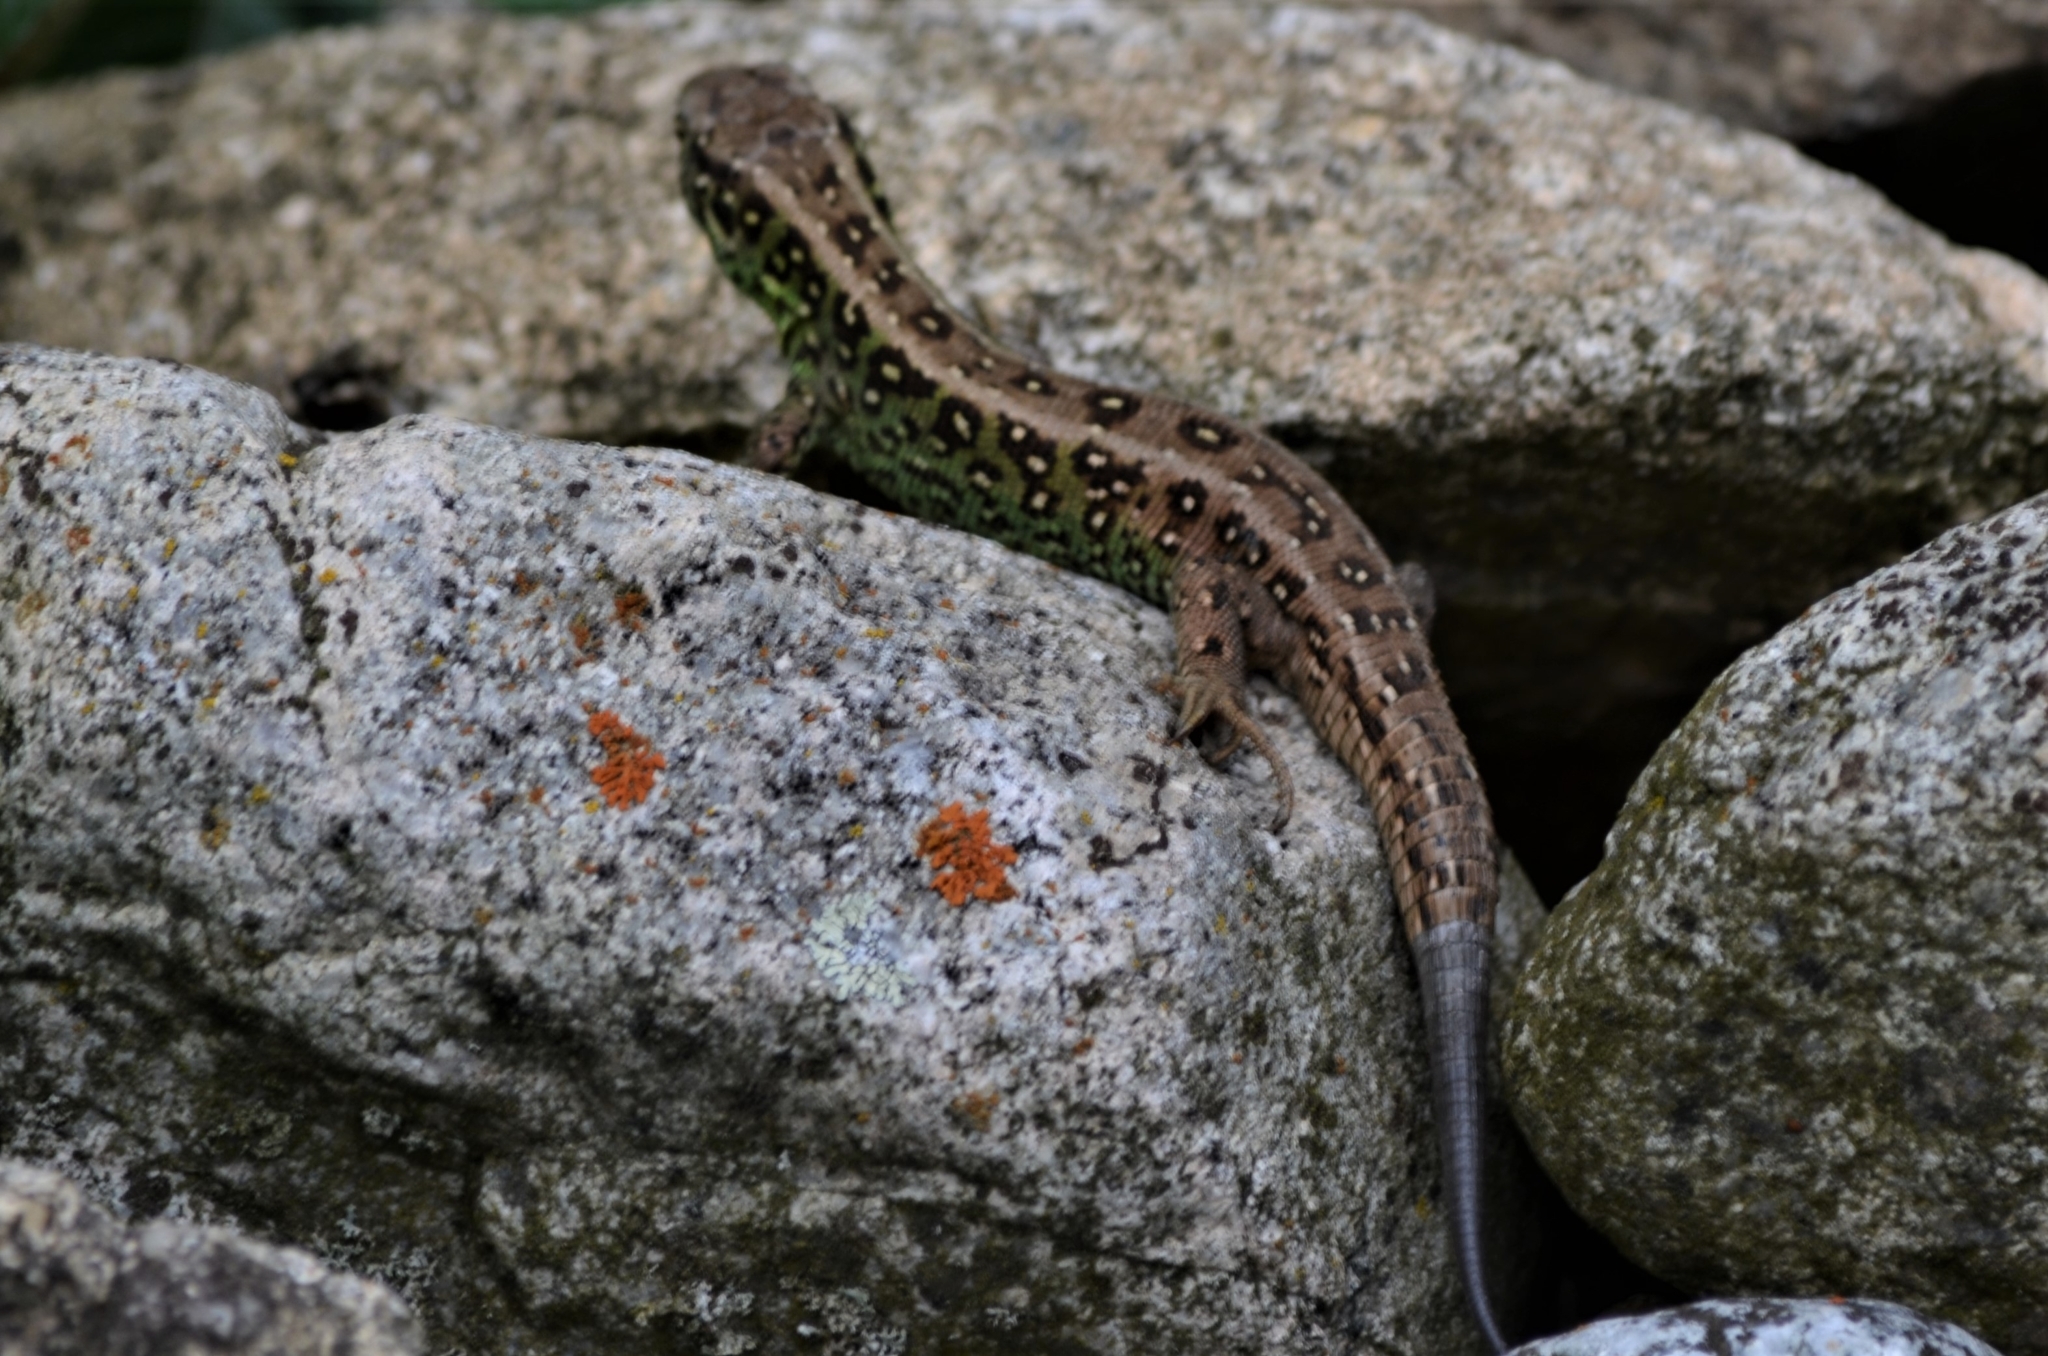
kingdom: Animalia
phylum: Chordata
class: Squamata
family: Lacertidae
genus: Lacerta
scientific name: Lacerta agilis
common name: Sand lizard
